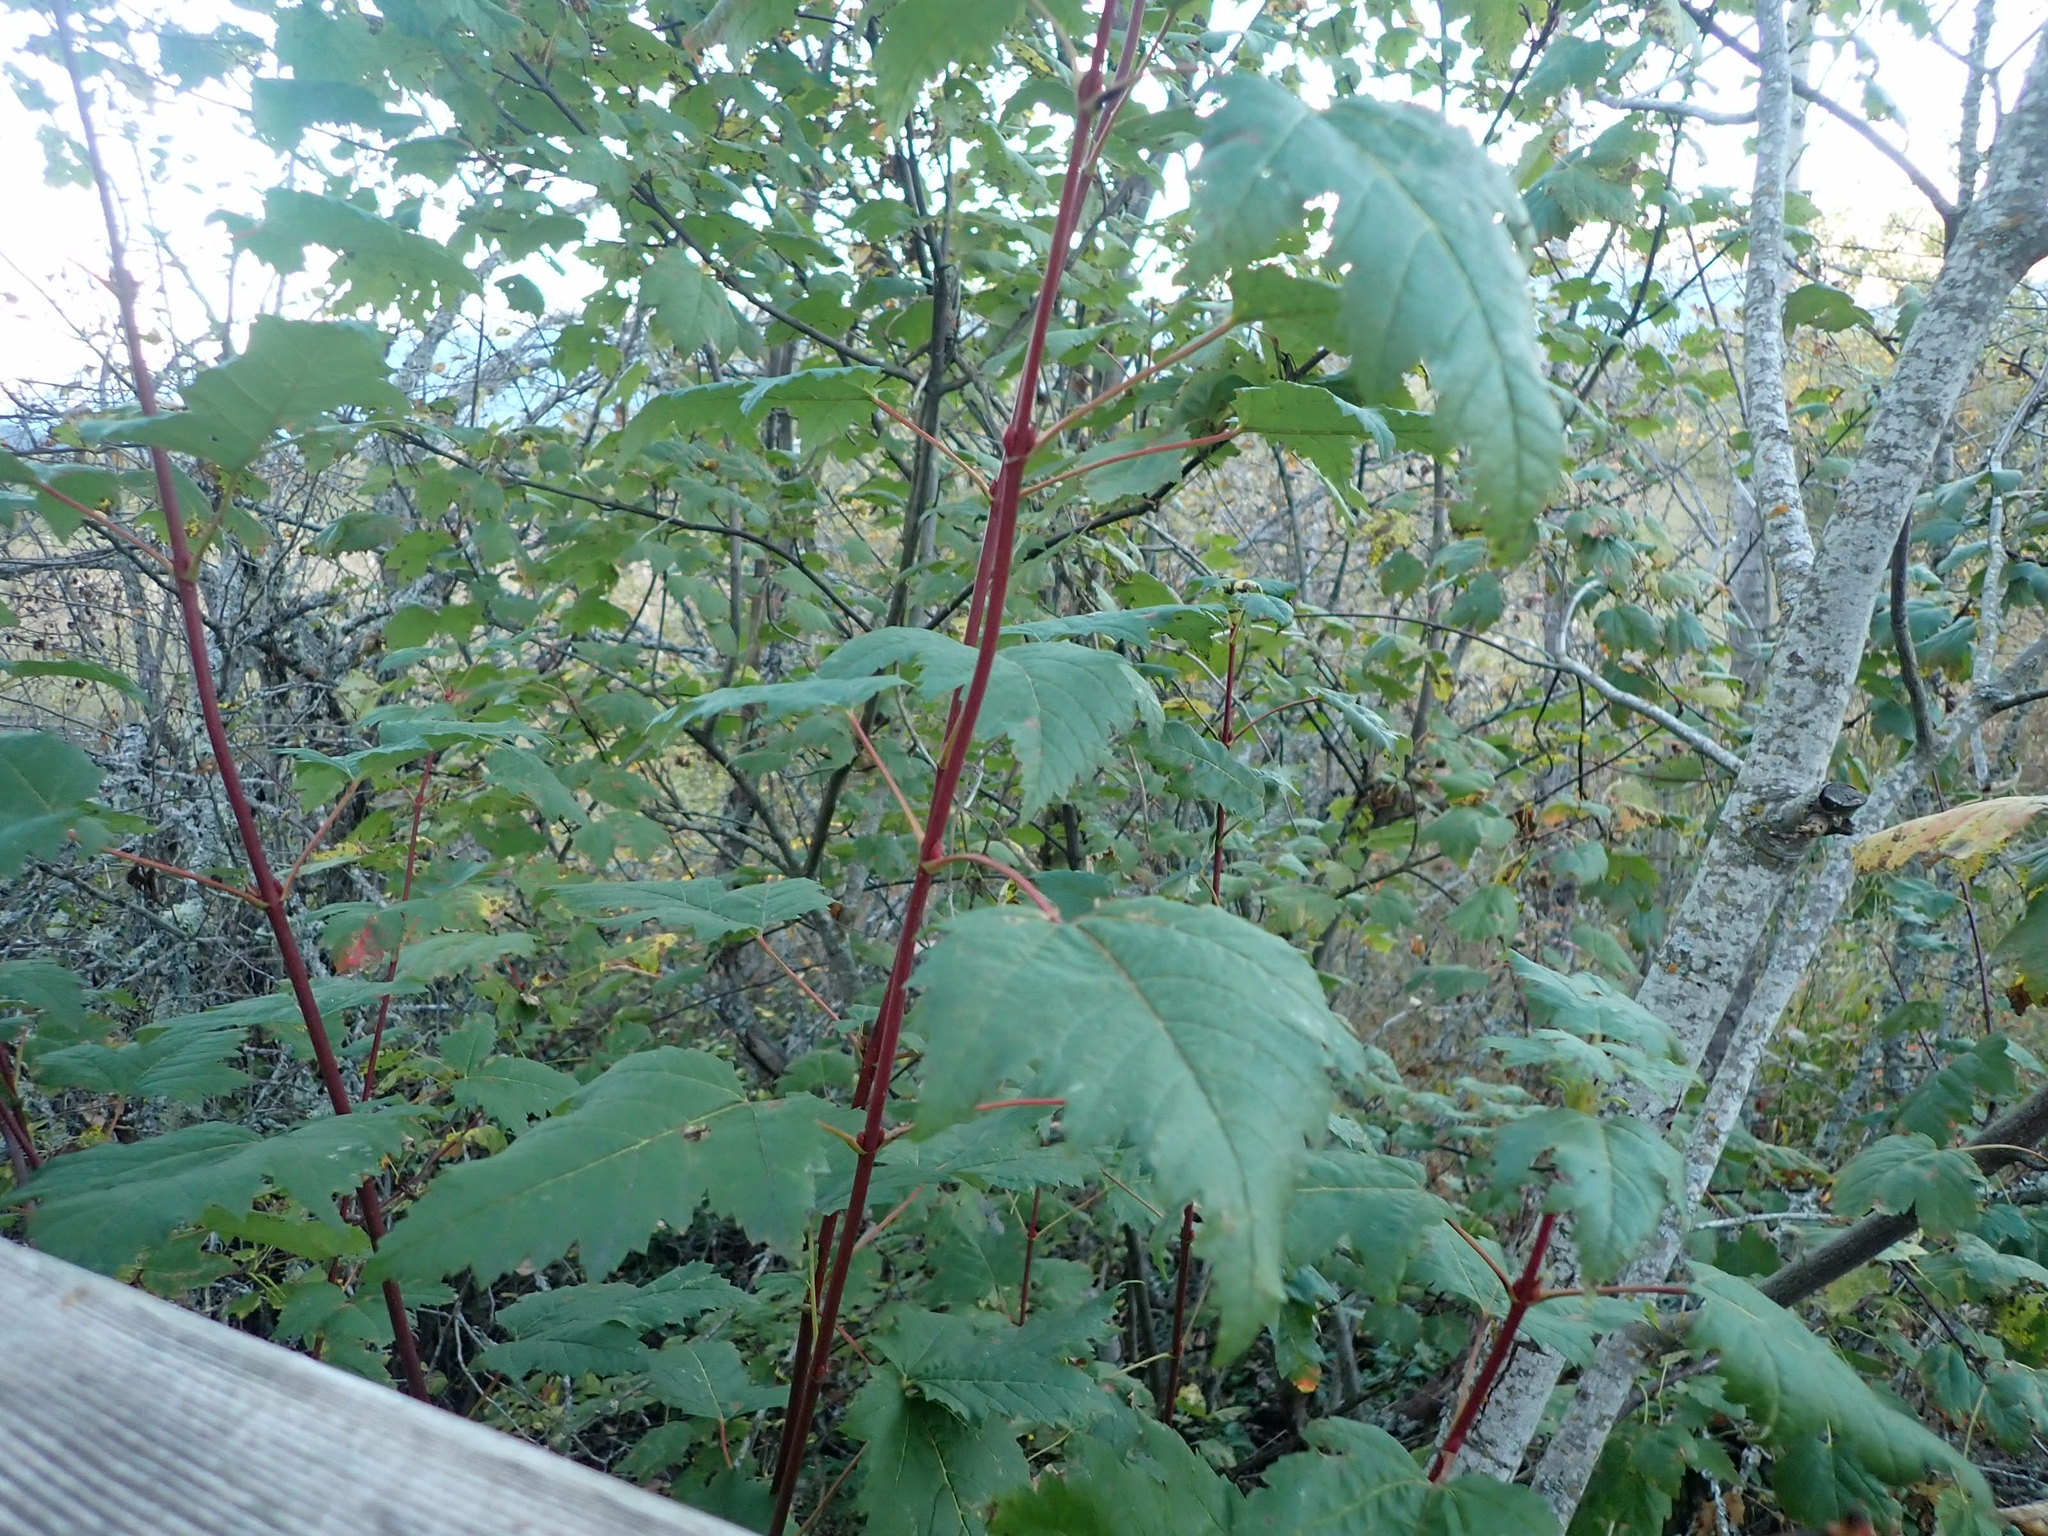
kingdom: Plantae
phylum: Tracheophyta
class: Magnoliopsida
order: Sapindales
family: Sapindaceae
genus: Acer
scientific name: Acer glabrum
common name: Rocky mountain maple
